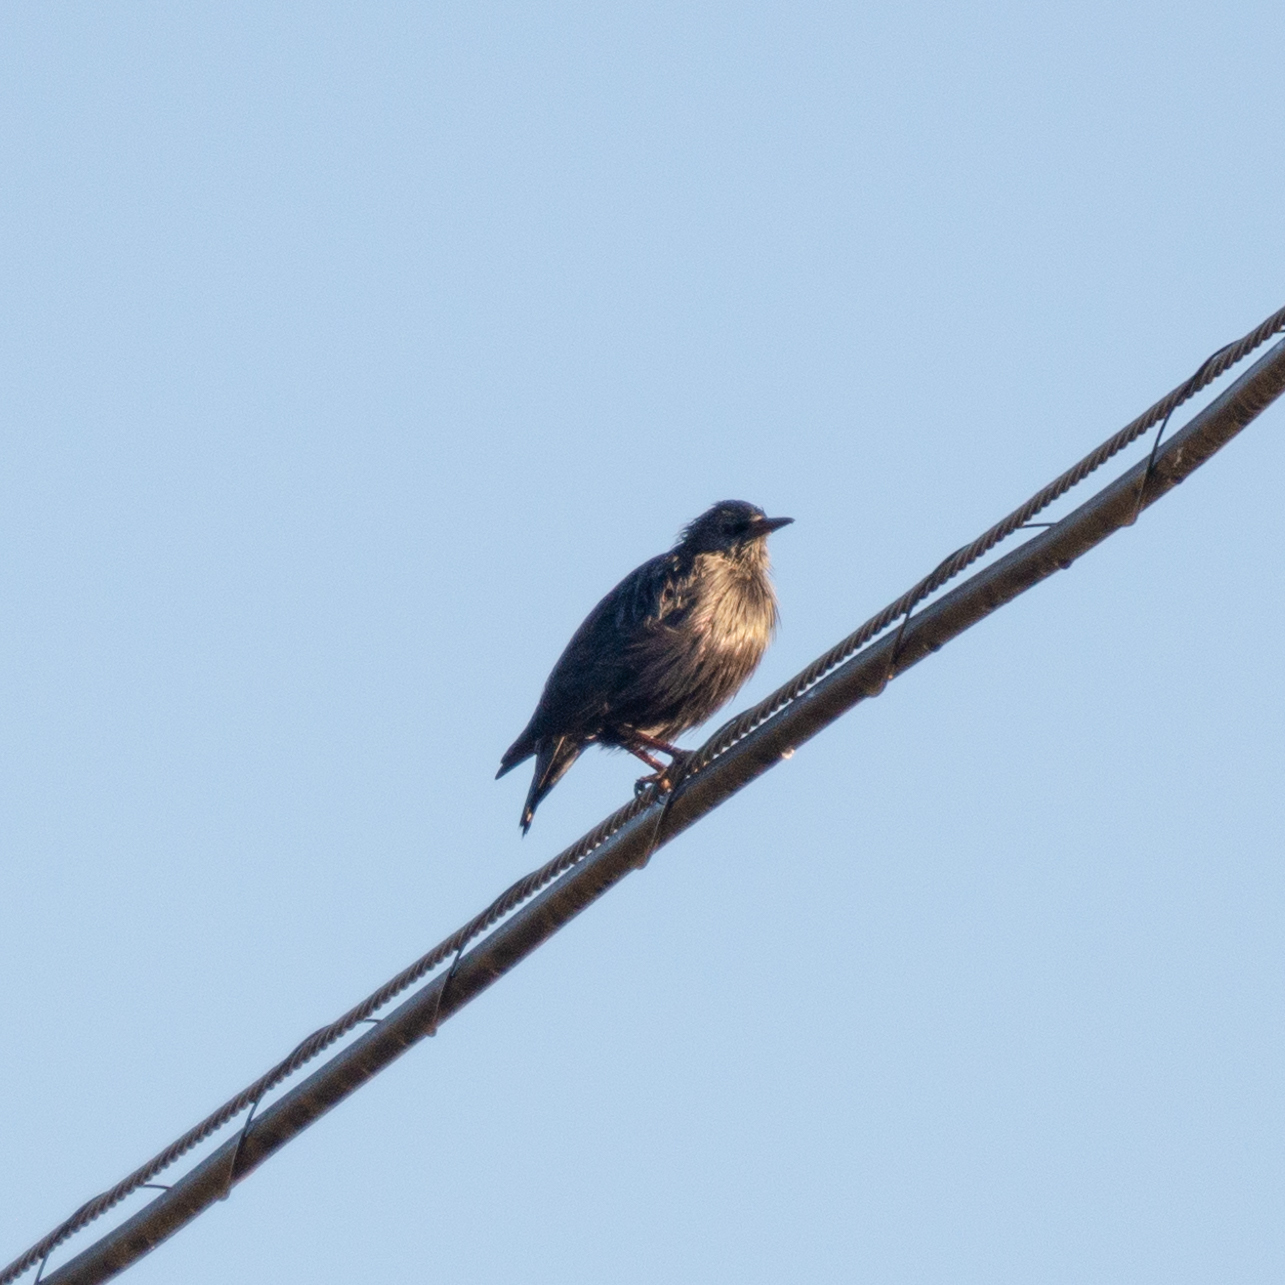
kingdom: Animalia
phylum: Chordata
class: Aves
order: Passeriformes
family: Sturnidae
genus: Sturnus
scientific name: Sturnus unicolor
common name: Spotless starling
